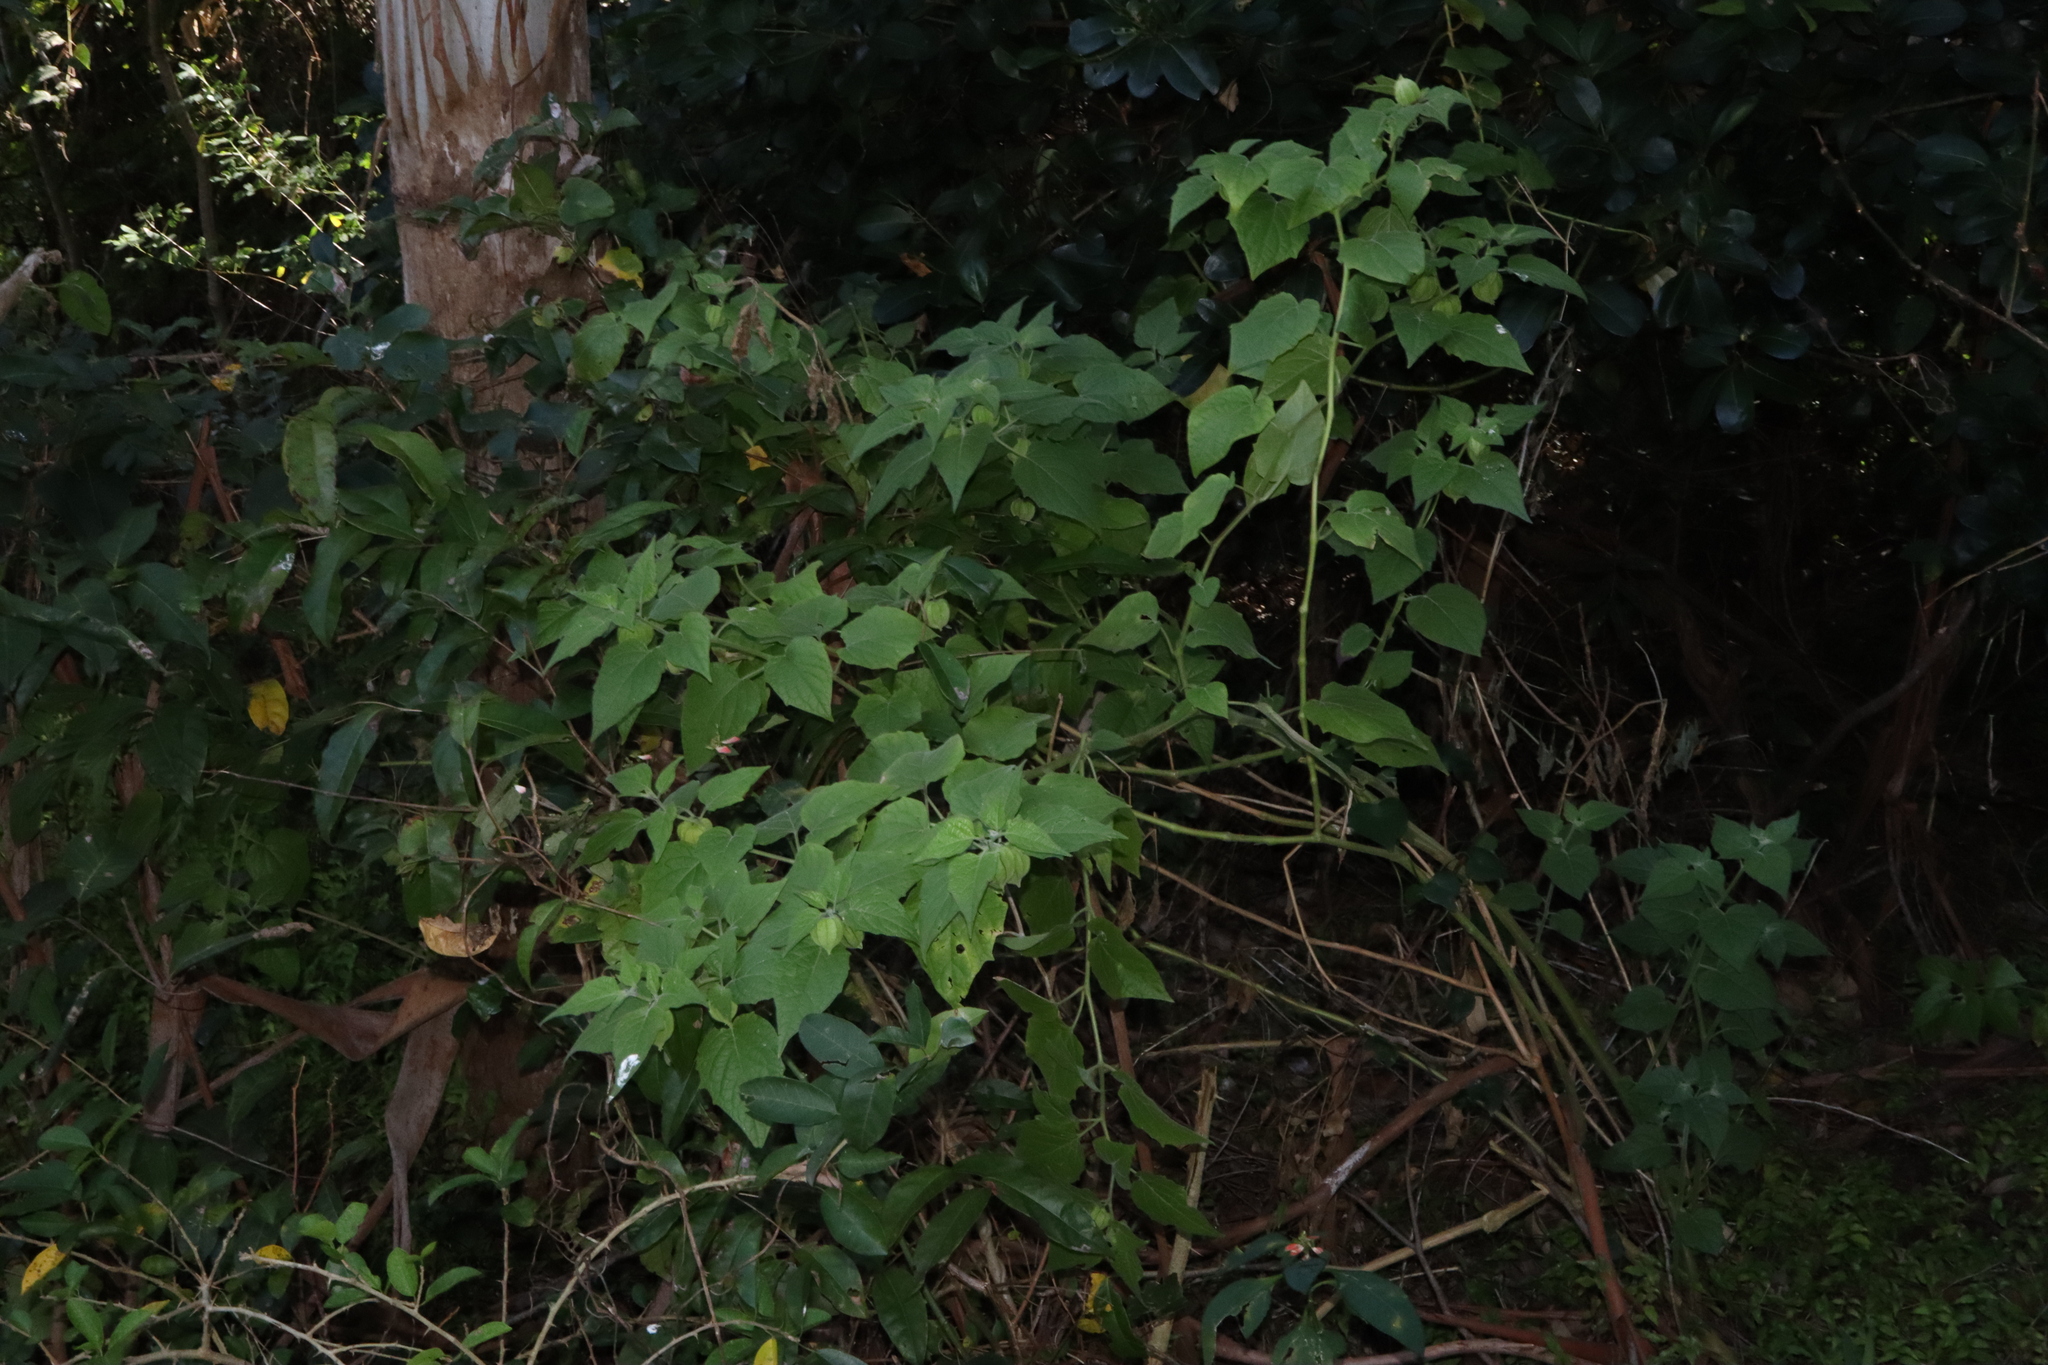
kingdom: Plantae
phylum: Tracheophyta
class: Magnoliopsida
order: Solanales
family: Solanaceae
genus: Physalis
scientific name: Physalis peruviana
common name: Cape-gooseberry
